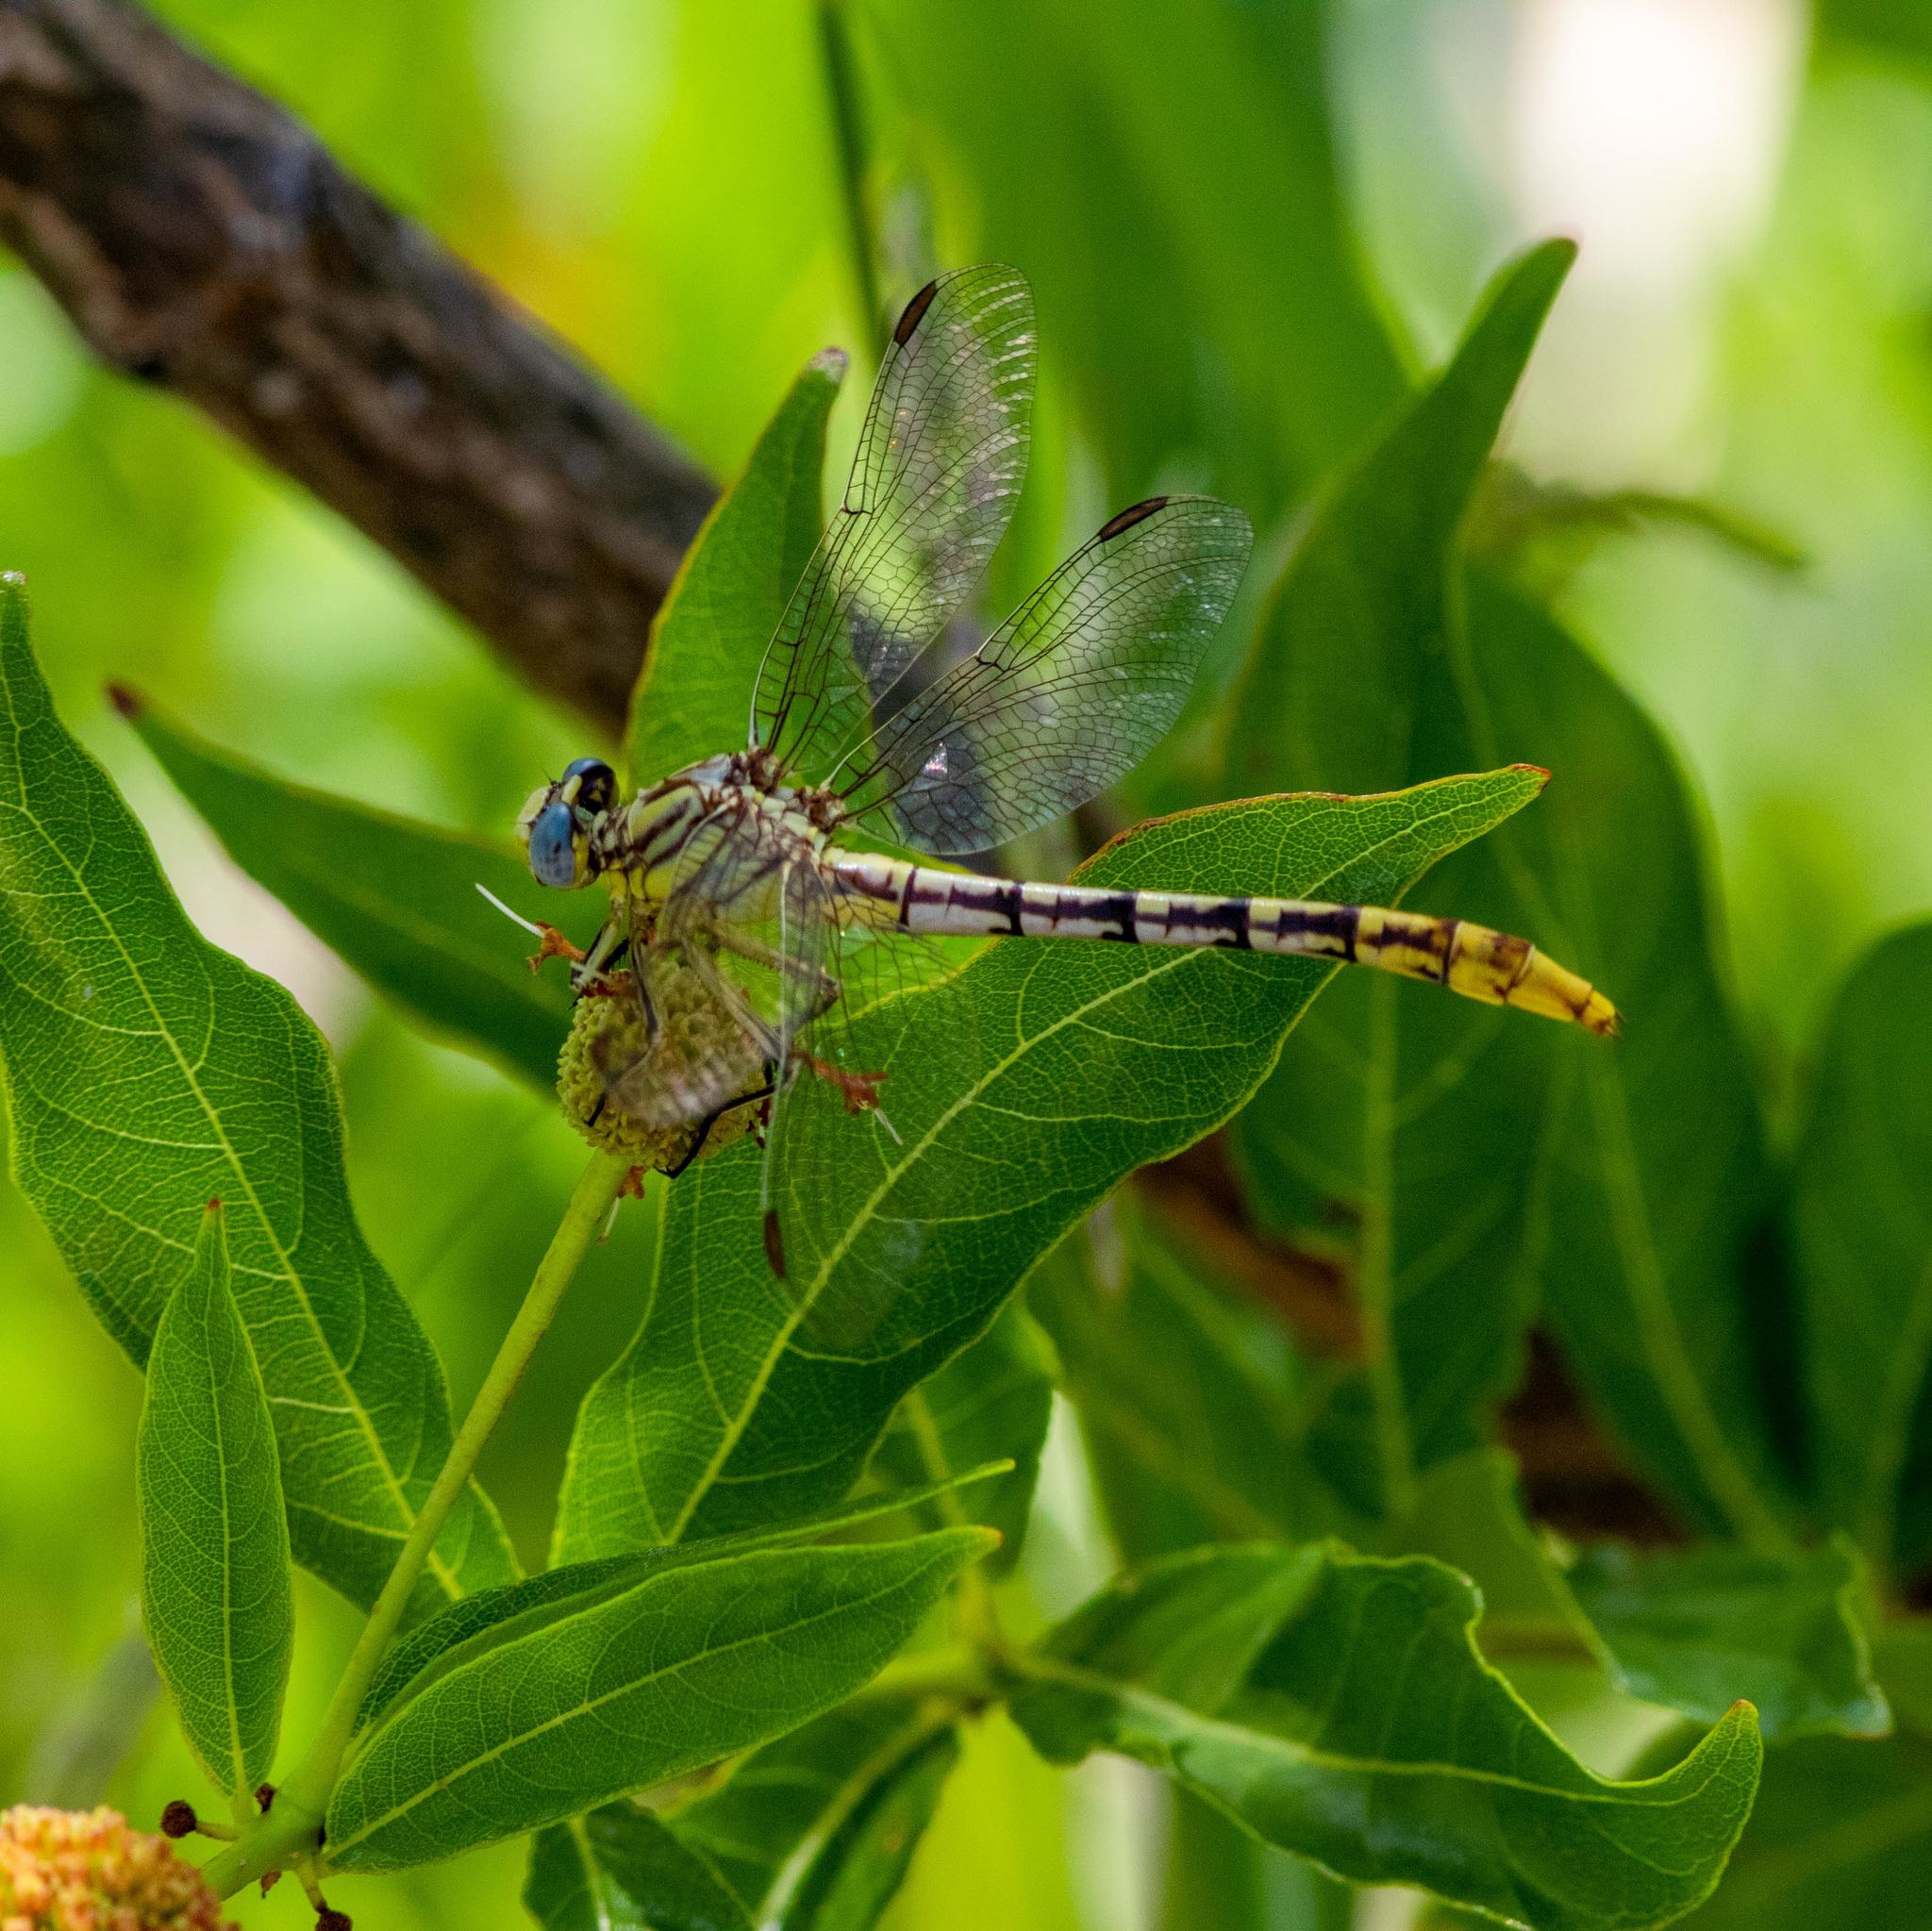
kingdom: Animalia
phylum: Arthropoda
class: Insecta
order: Odonata
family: Gomphidae
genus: Phanogomphus
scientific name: Phanogomphus militaris
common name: Sulphur-tipped clubtail
